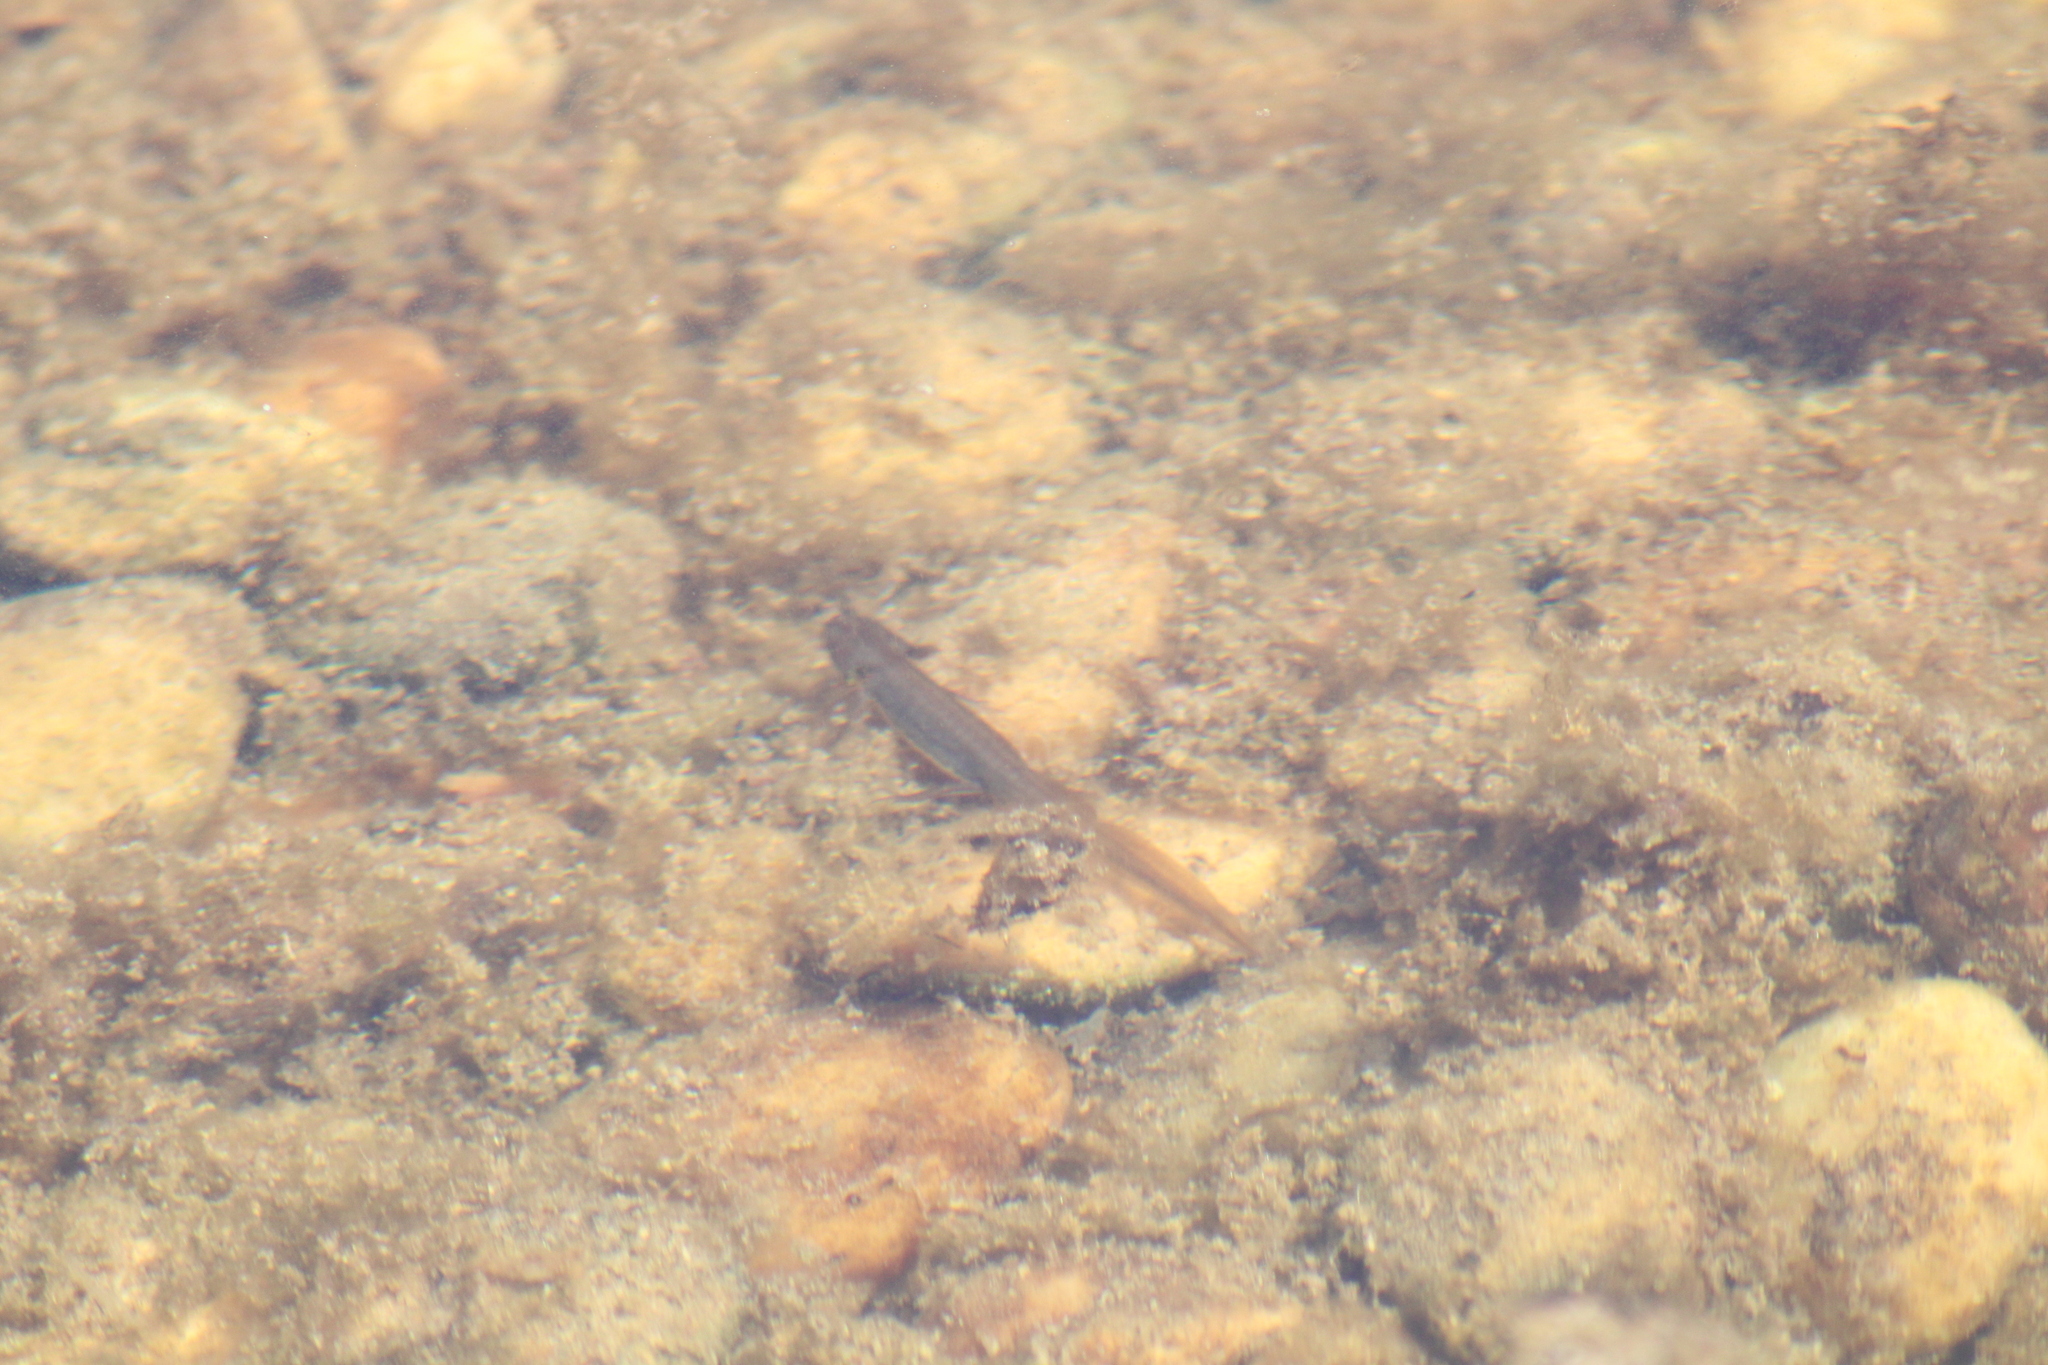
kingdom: Animalia
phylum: Chordata
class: Amphibia
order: Caudata
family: Salamandridae
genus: Lissotriton
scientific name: Lissotriton vulgaris
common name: Smooth newt
